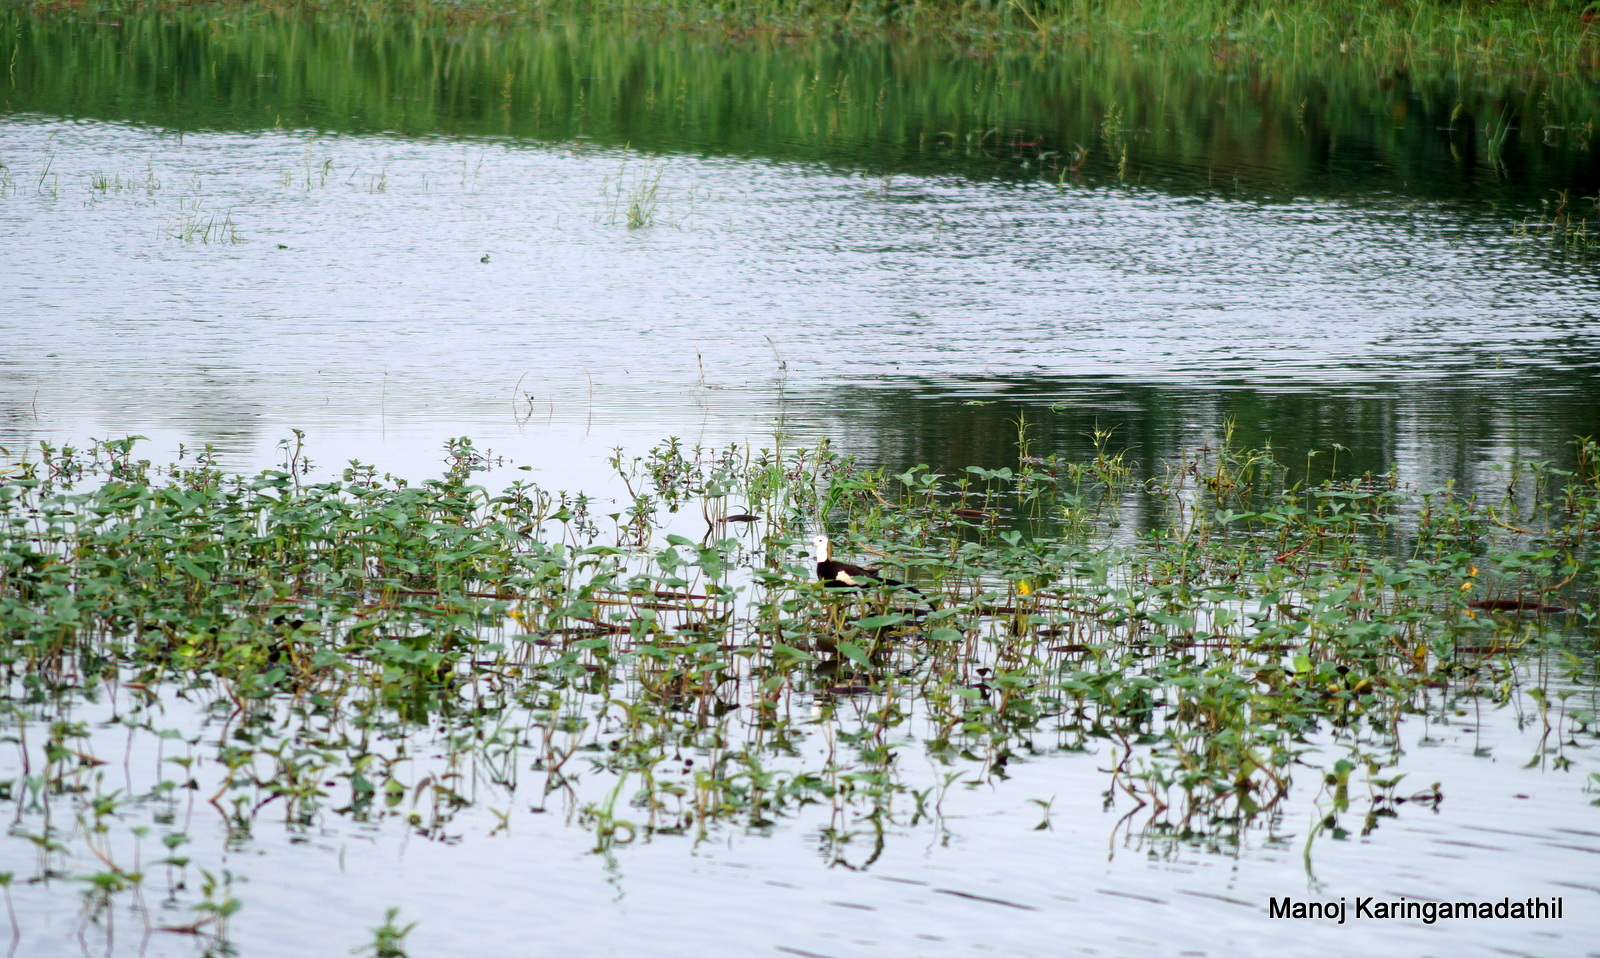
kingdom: Animalia
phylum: Chordata
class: Aves
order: Charadriiformes
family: Jacanidae
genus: Hydrophasianus
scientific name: Hydrophasianus chirurgus
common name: Pheasant-tailed jacana
